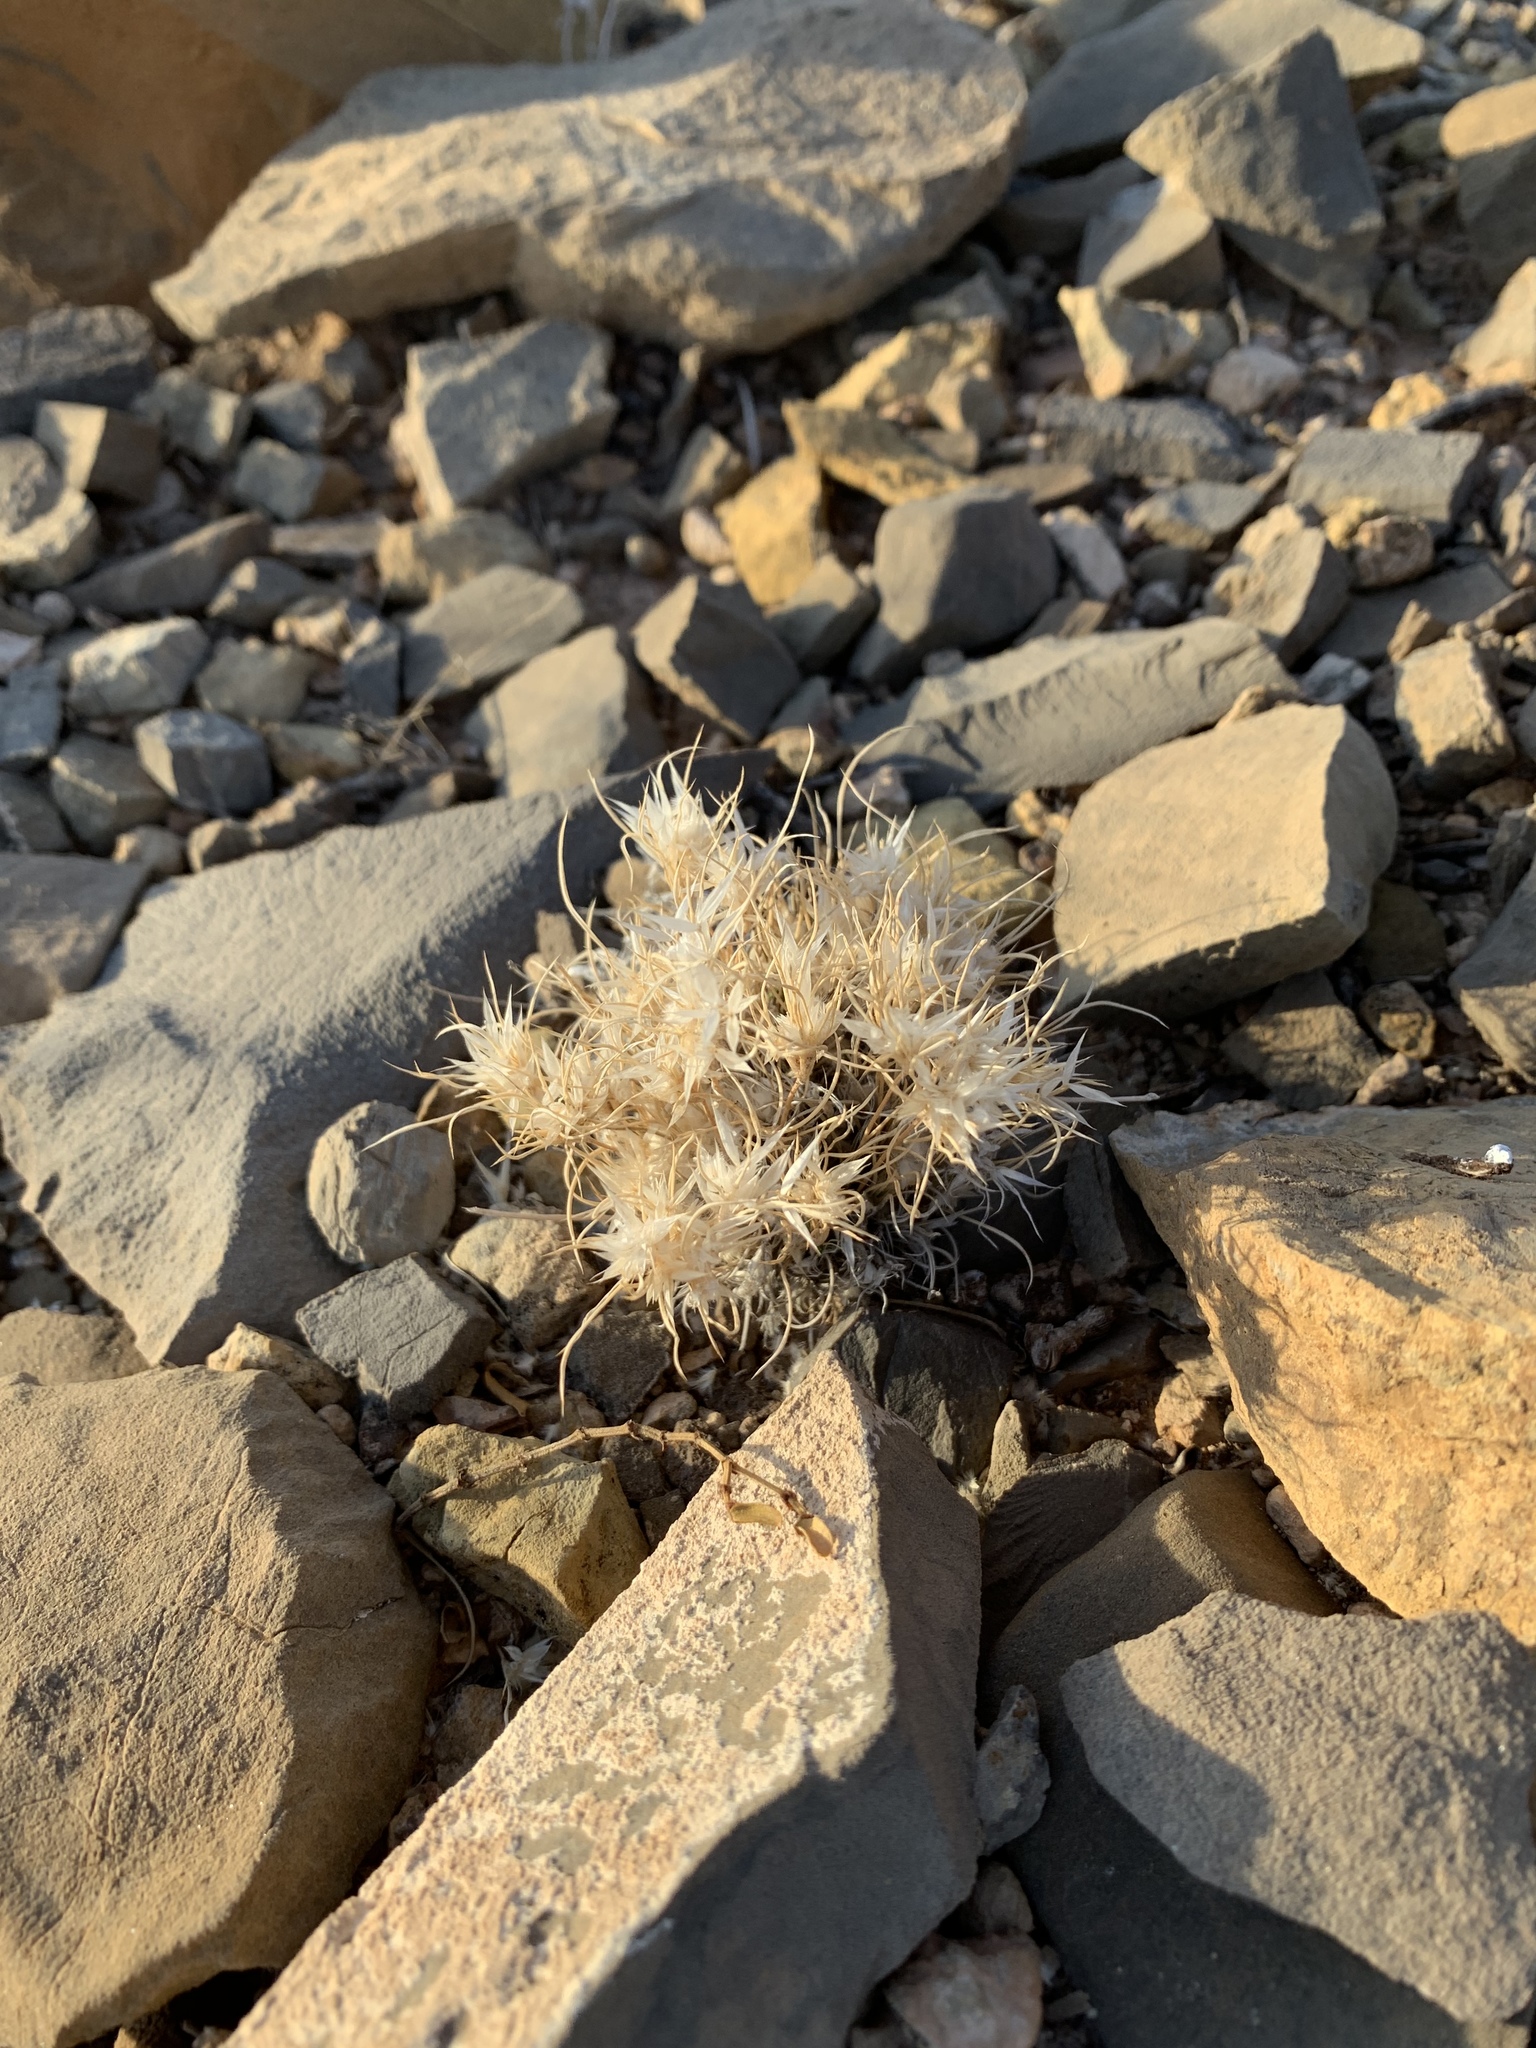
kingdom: Plantae
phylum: Tracheophyta
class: Liliopsida
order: Poales
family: Poaceae
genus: Dasyochloa
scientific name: Dasyochloa pulchella
